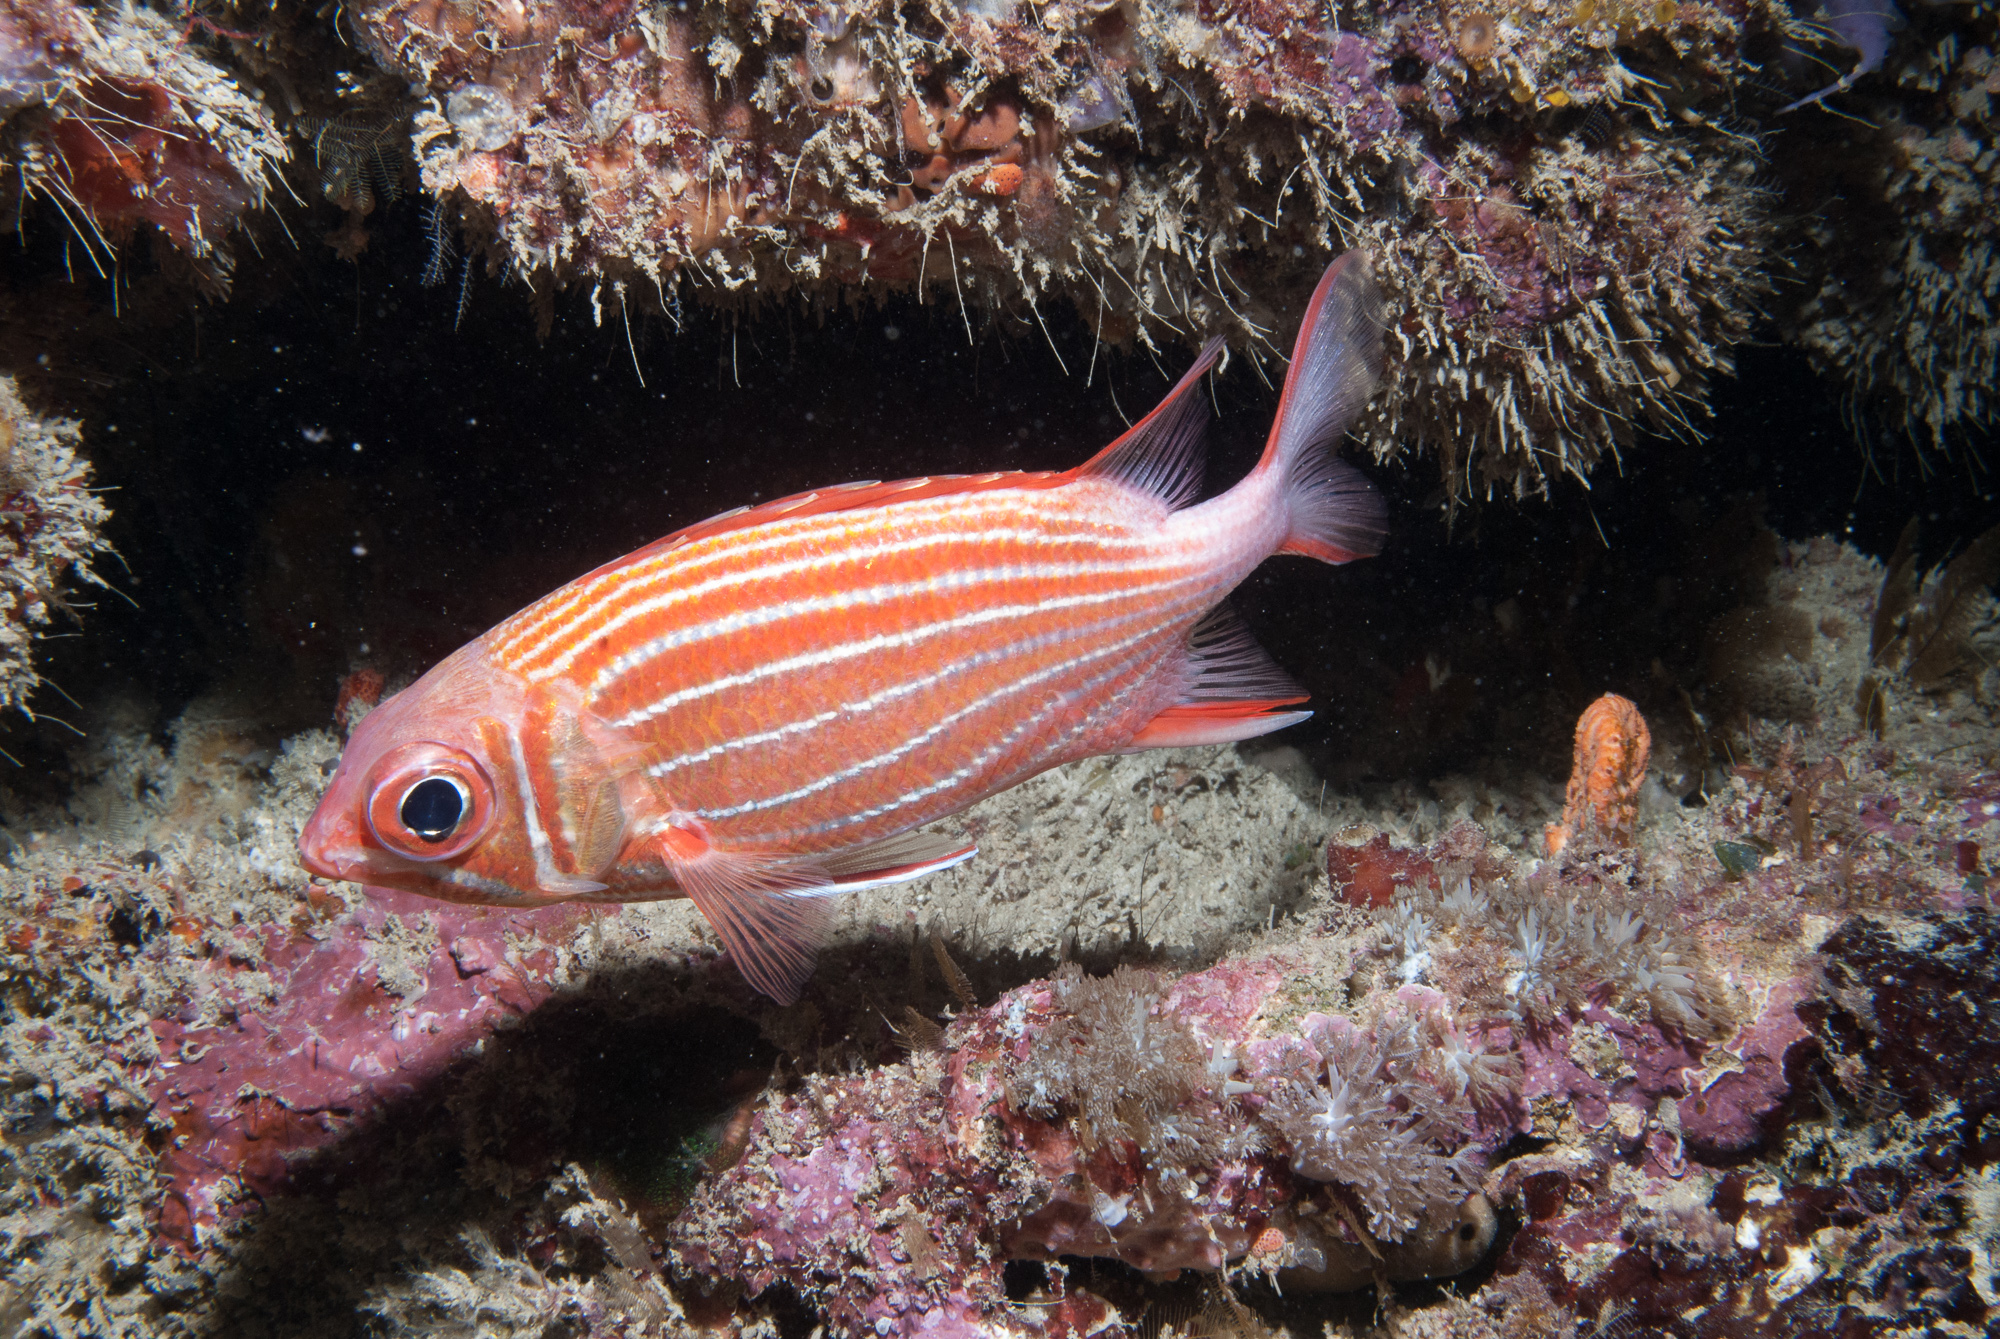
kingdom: Animalia
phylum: Chordata
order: Beryciformes
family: Holocentridae
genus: Sargocentron
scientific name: Sargocentron diadema
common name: Crown squirrelfish
